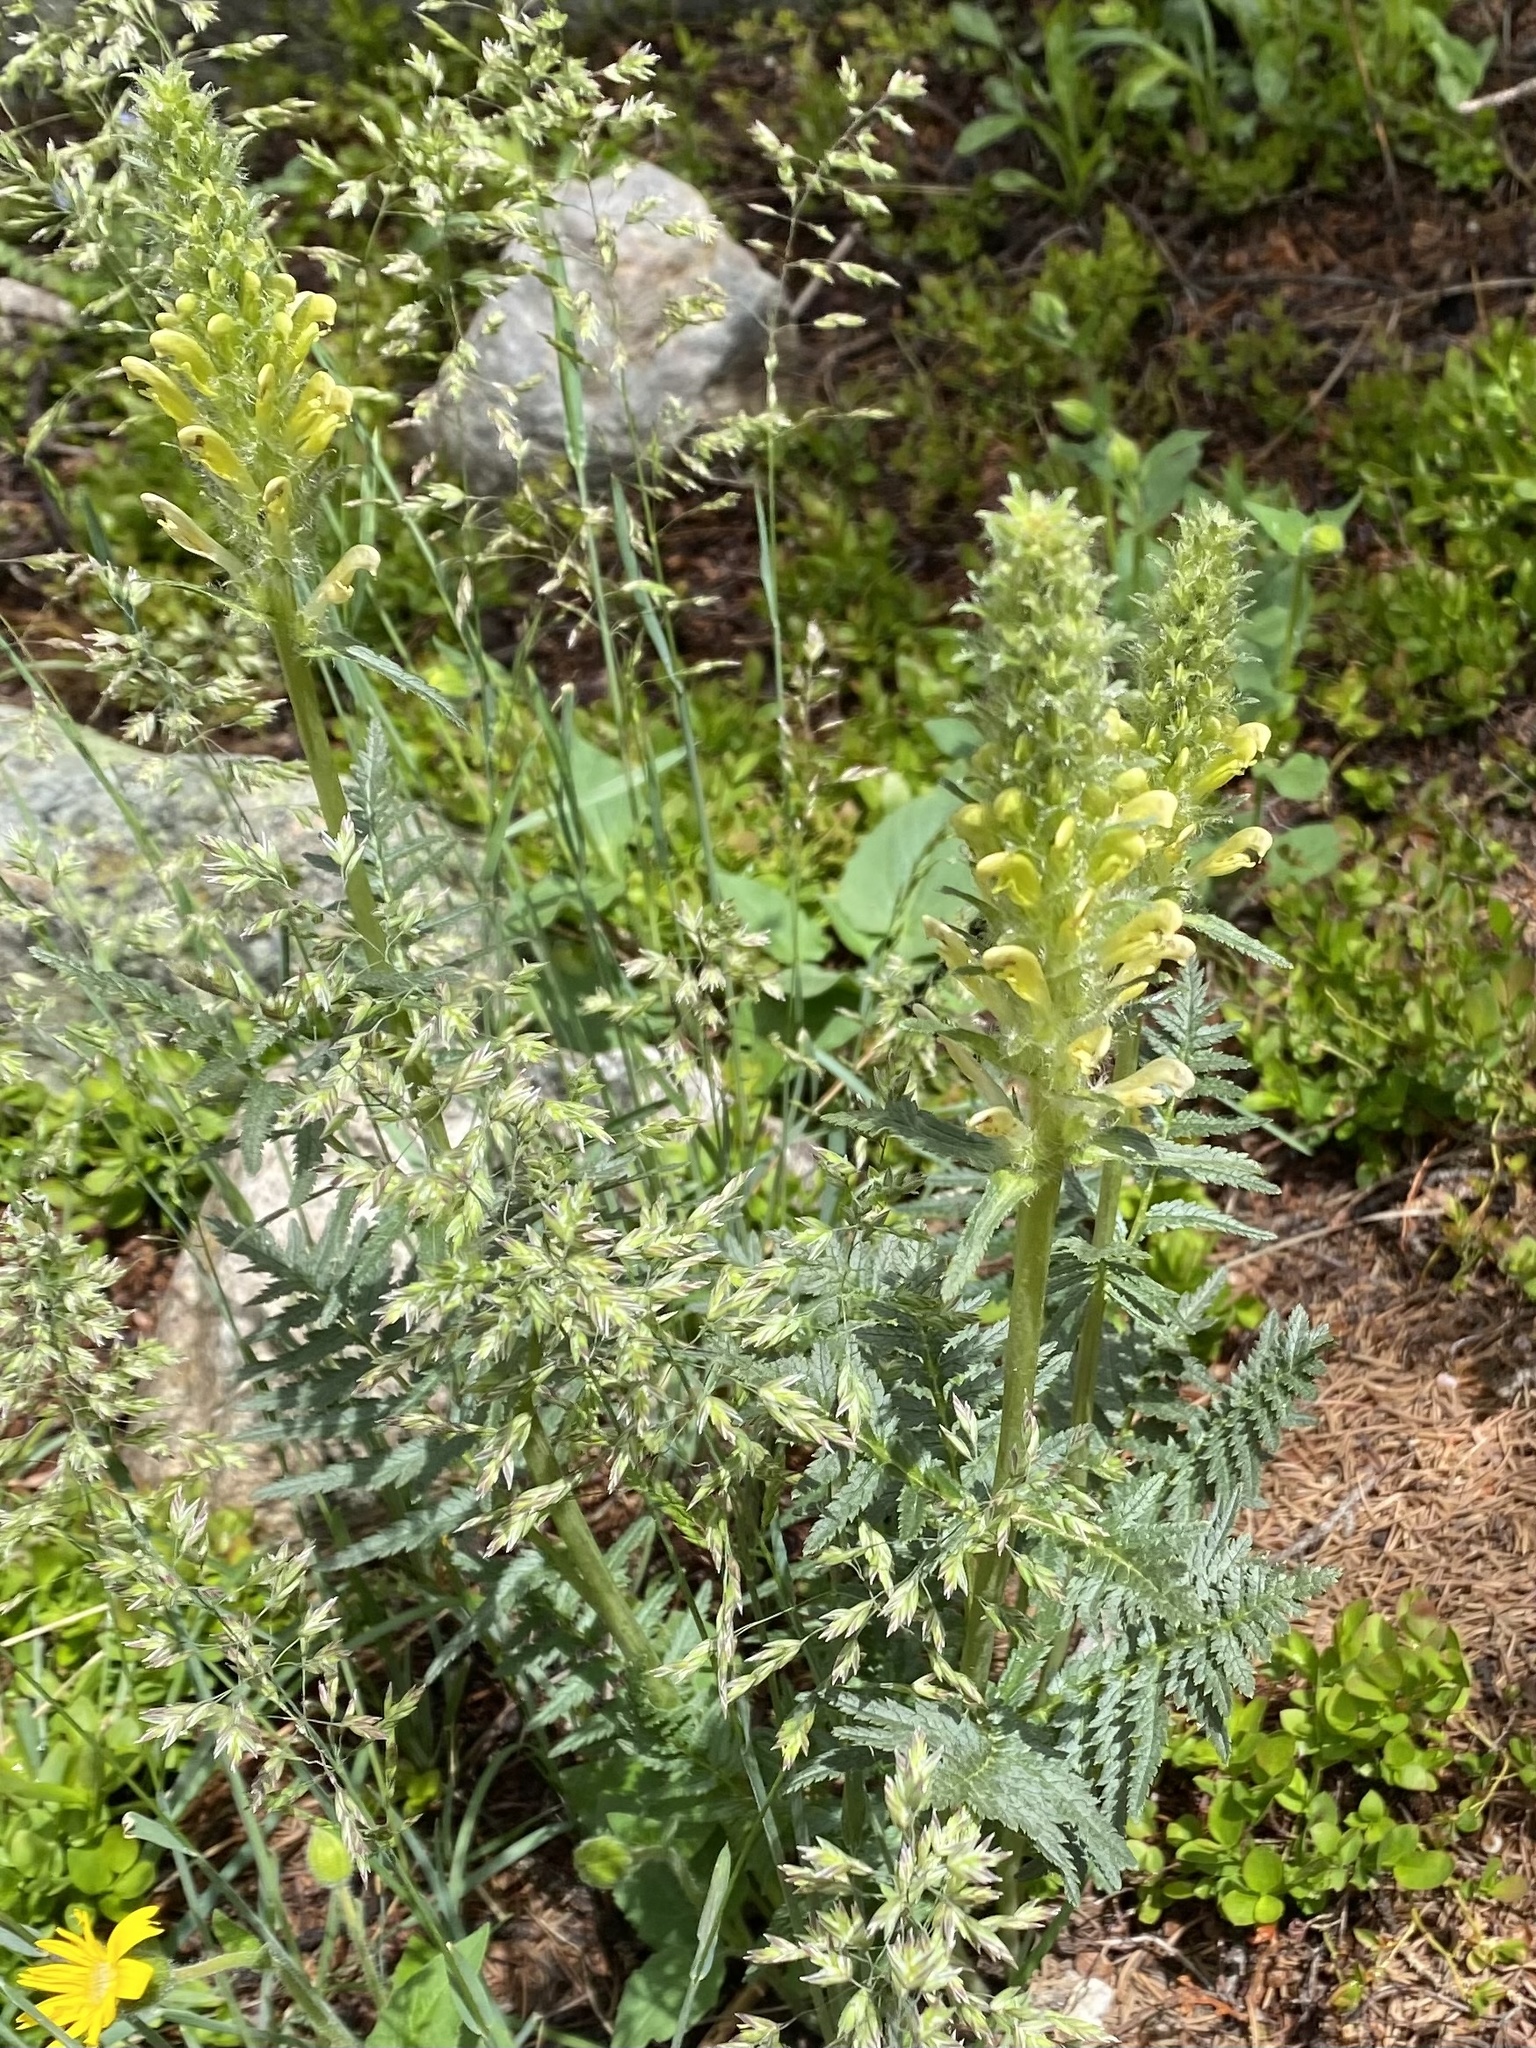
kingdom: Plantae
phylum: Tracheophyta
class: Magnoliopsida
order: Lamiales
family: Orobanchaceae
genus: Pedicularis
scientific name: Pedicularis bracteosa
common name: Bracted lousewort
